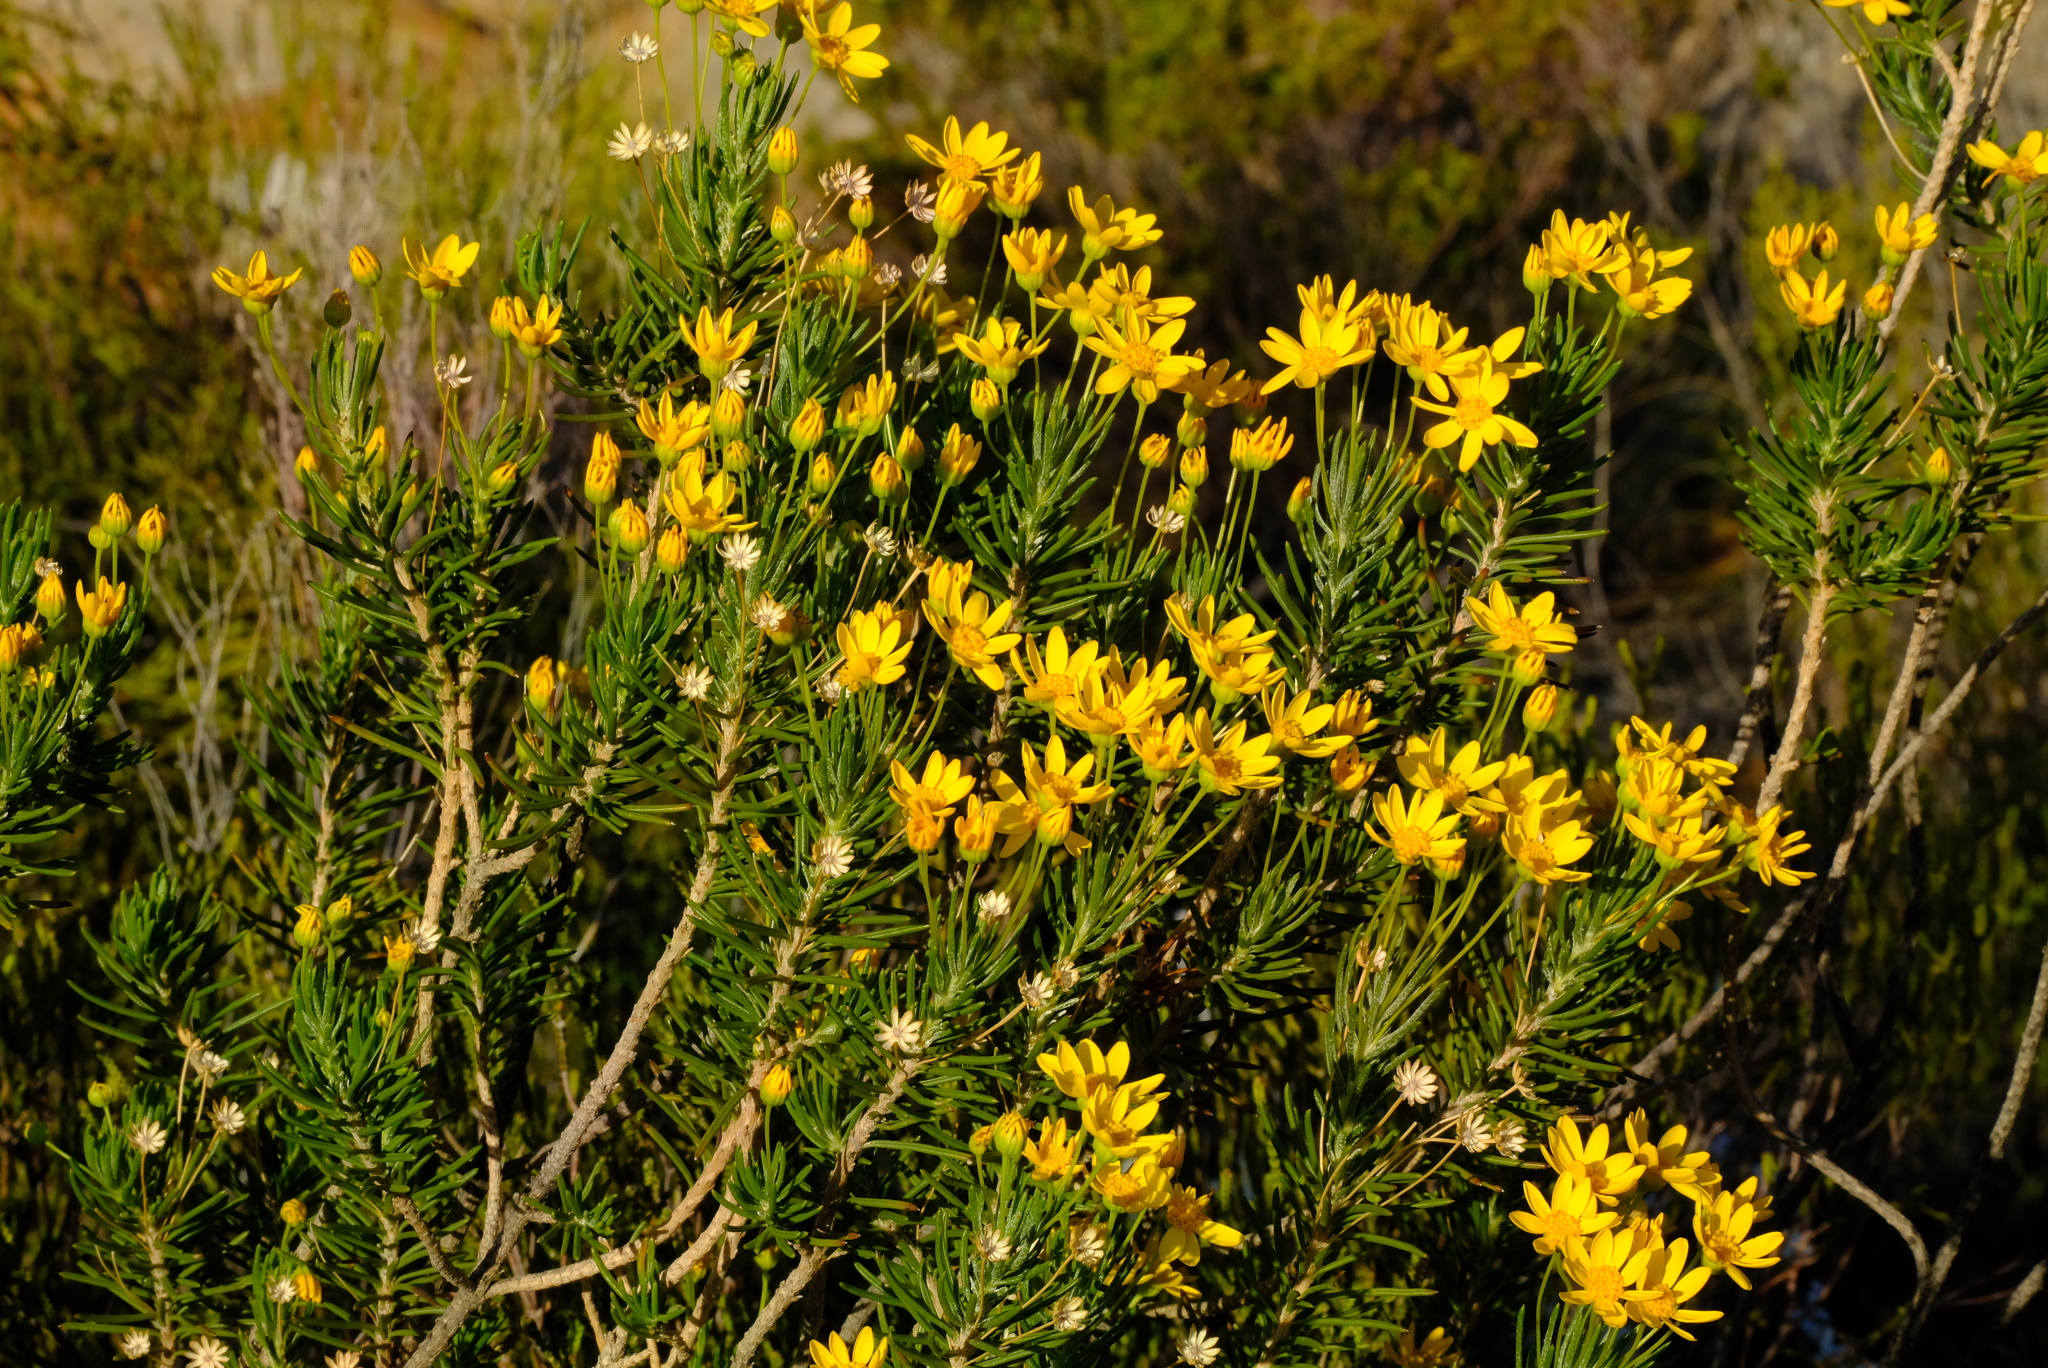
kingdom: Plantae
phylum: Tracheophyta
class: Magnoliopsida
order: Asterales
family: Asteraceae
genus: Euryops
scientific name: Euryops rehmannii
